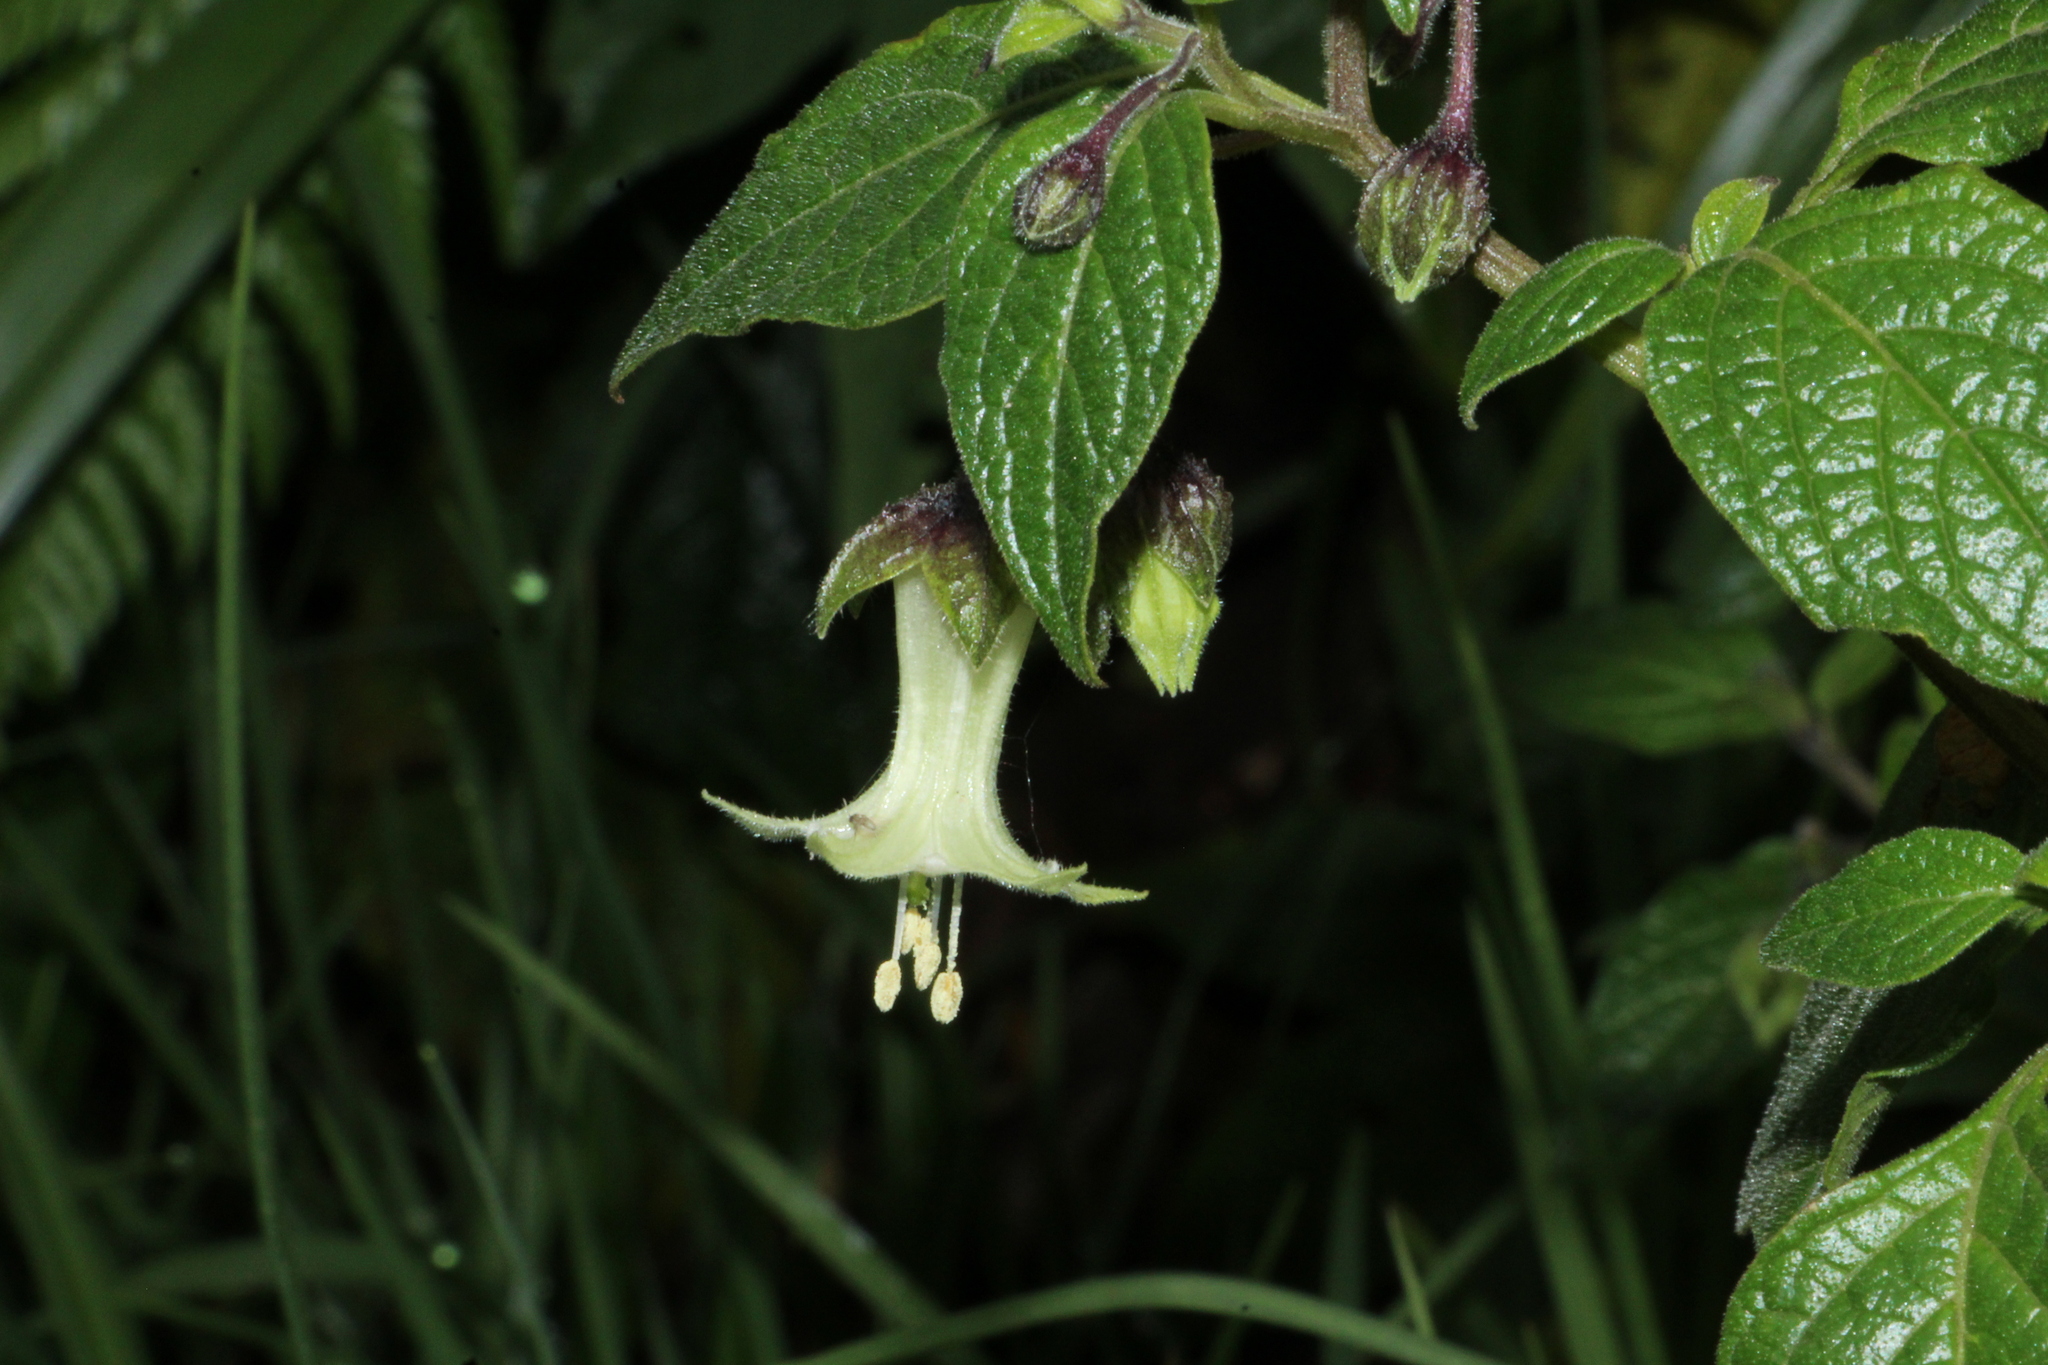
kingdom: Plantae
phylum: Tracheophyta
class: Magnoliopsida
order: Solanales
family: Solanaceae
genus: Jaltomata
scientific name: Jaltomata viridiflora
